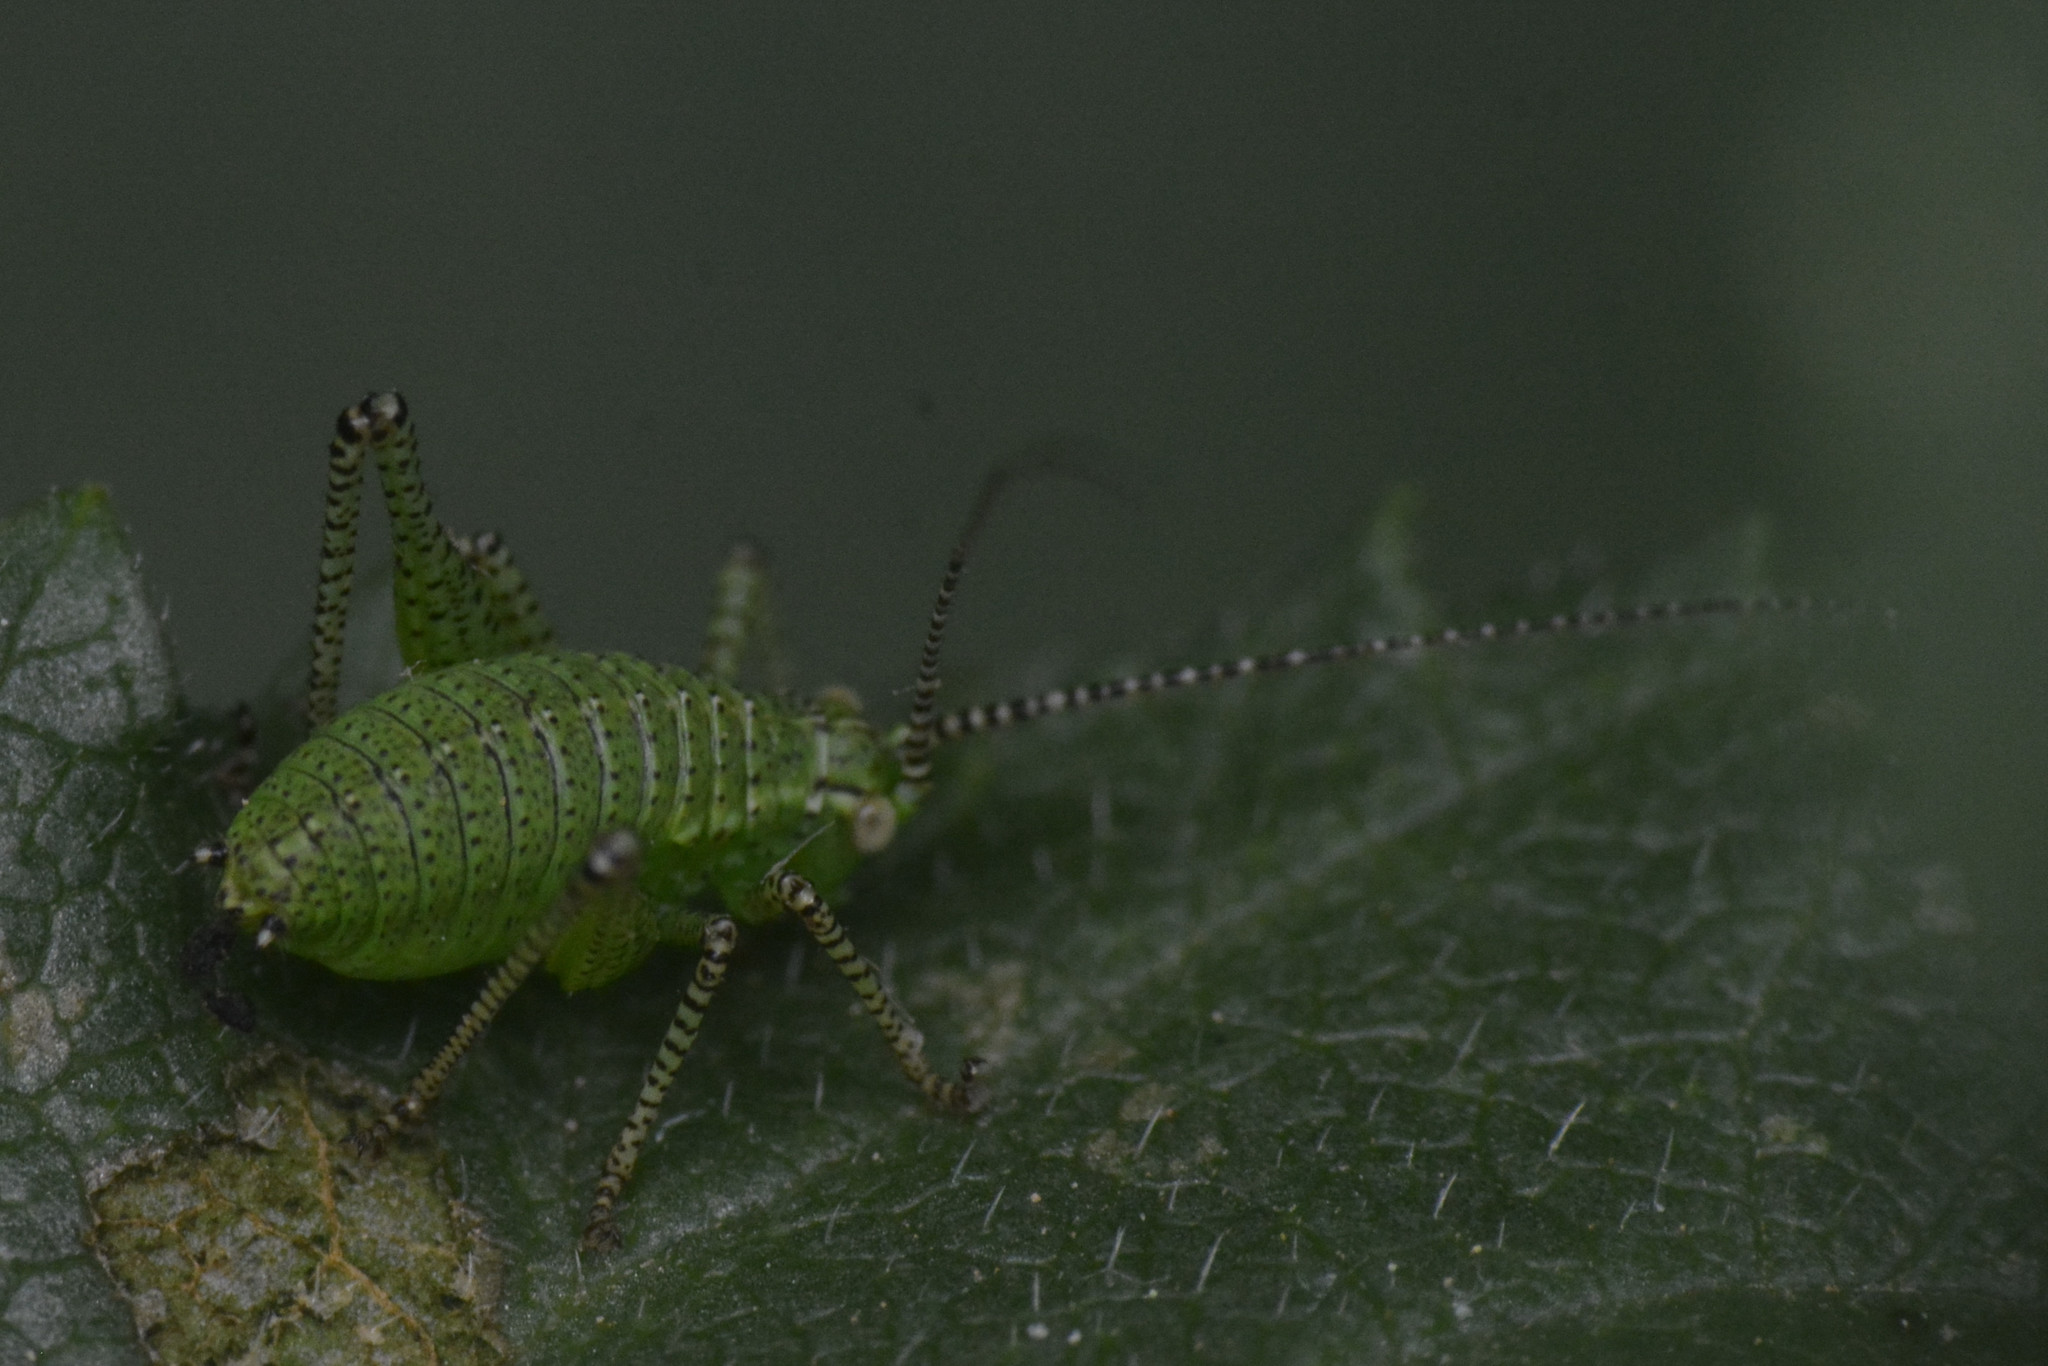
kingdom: Animalia
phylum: Arthropoda
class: Insecta
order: Orthoptera
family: Tettigoniidae
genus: Leptophyes
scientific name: Leptophyes punctatissima
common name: Speckled bush-cricket
